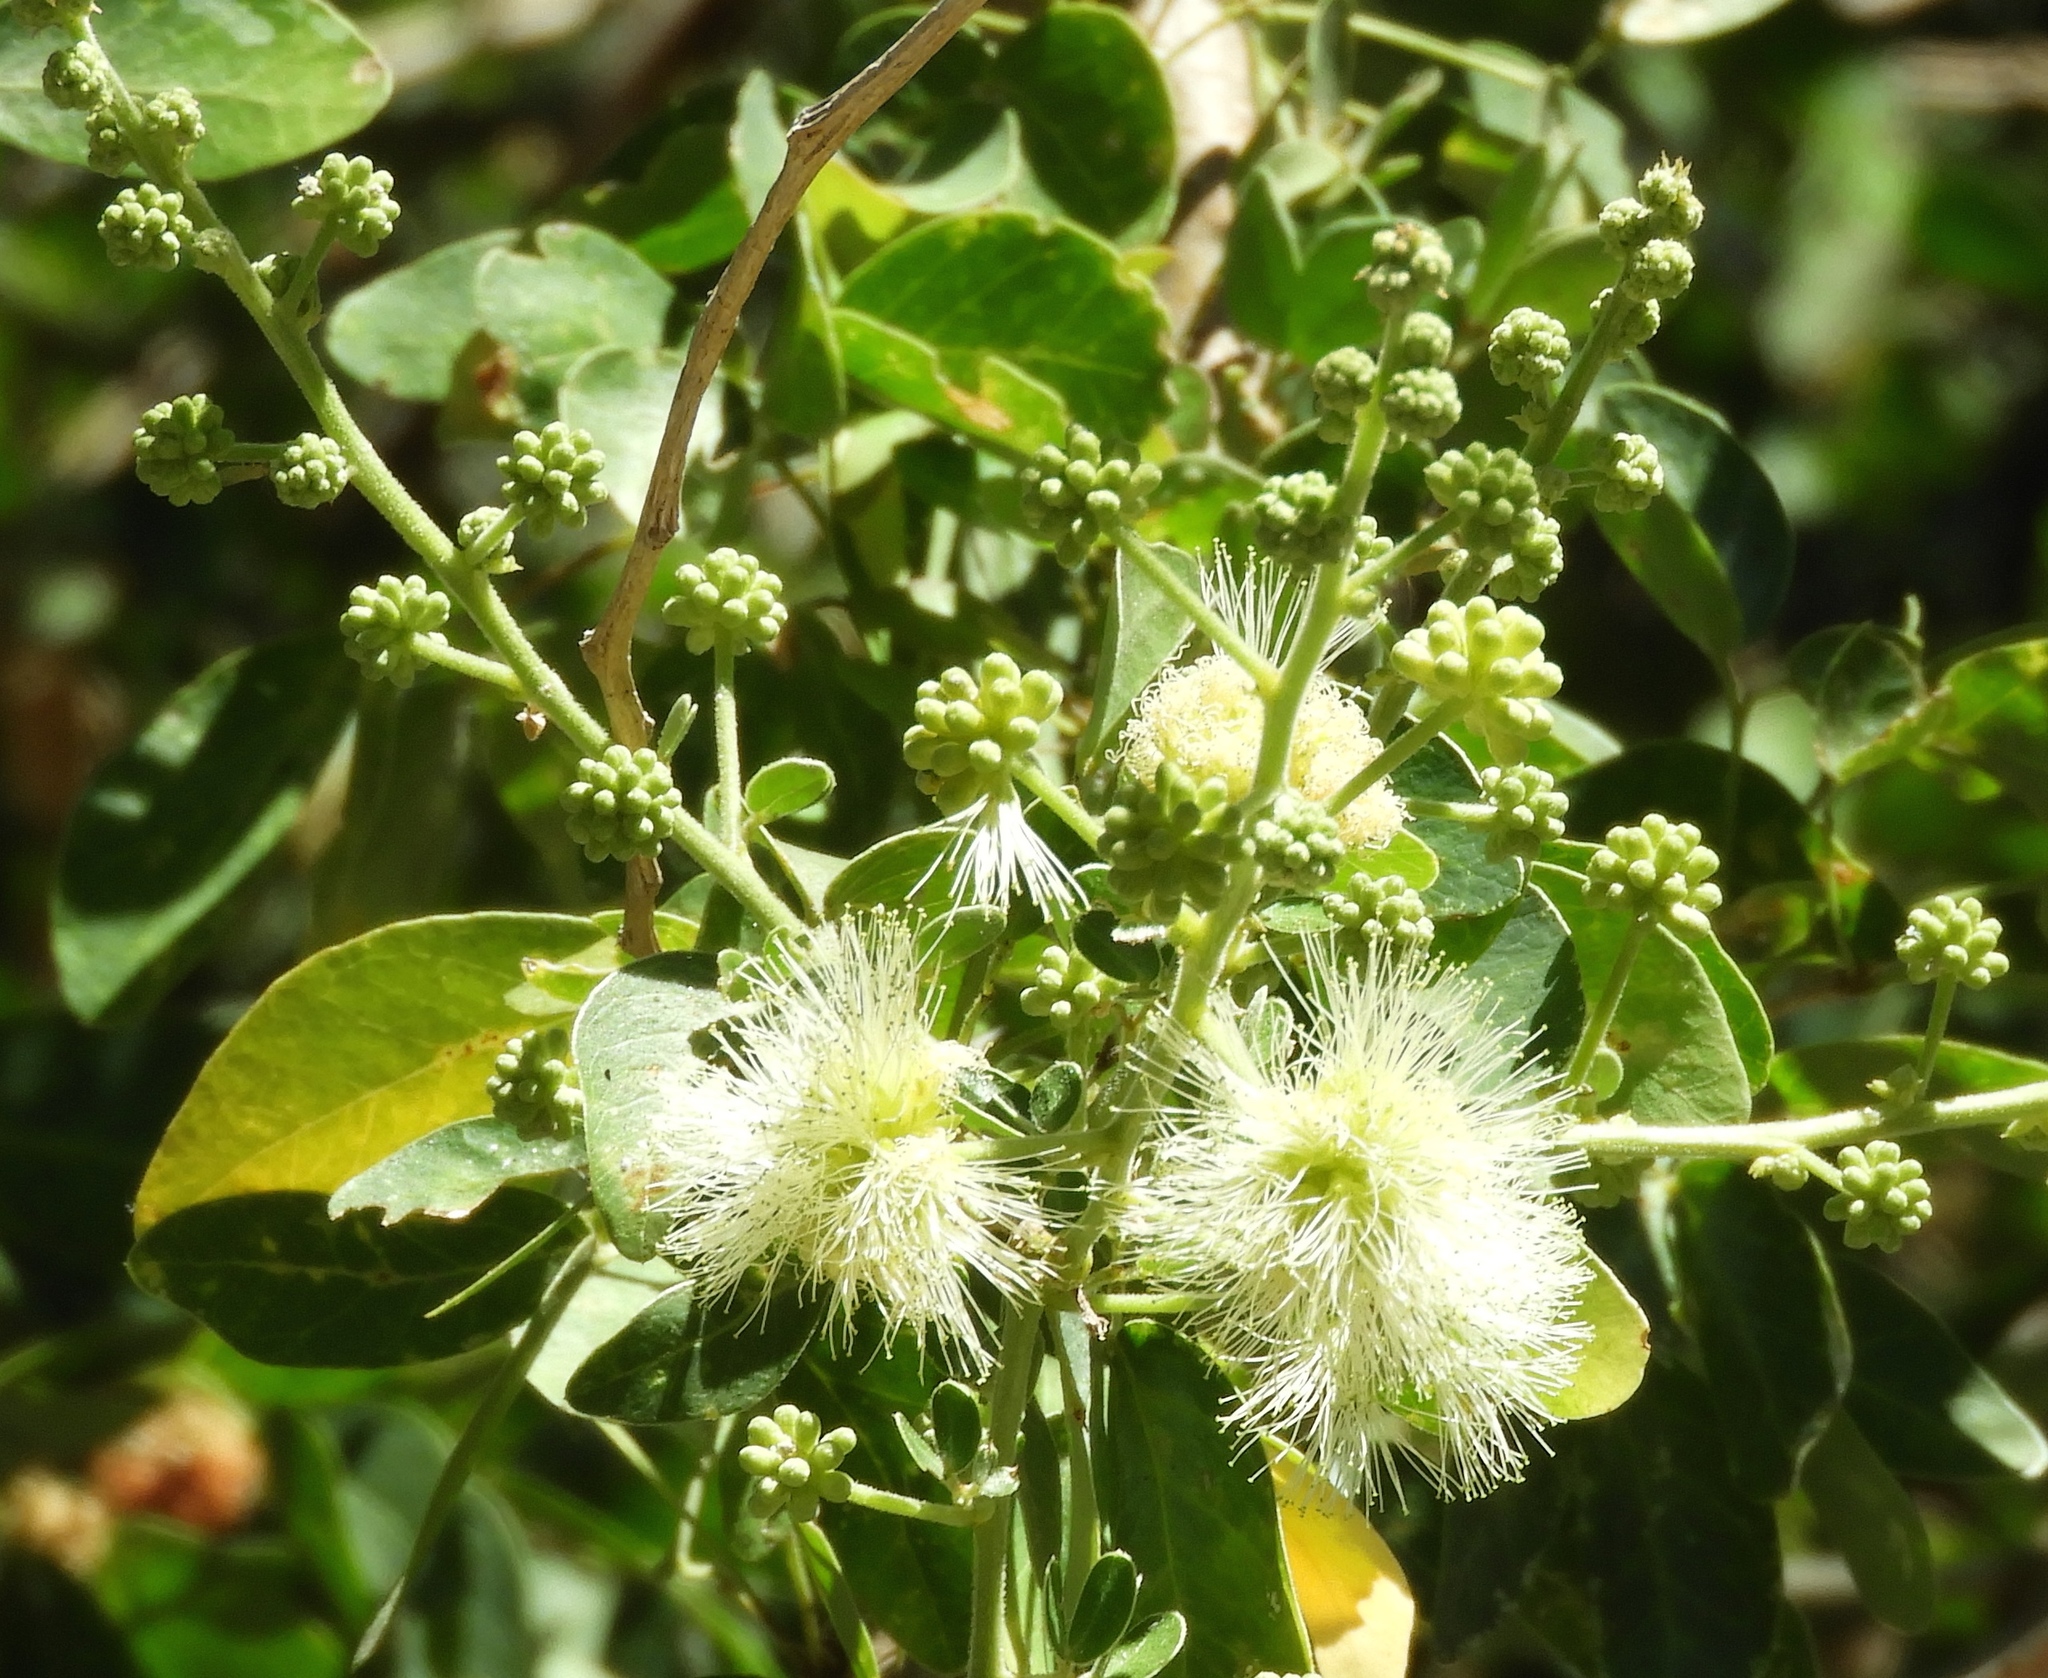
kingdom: Plantae
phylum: Tracheophyta
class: Magnoliopsida
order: Fabales
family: Fabaceae
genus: Pithecellobium
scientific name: Pithecellobium dulce
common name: Monkeypod
